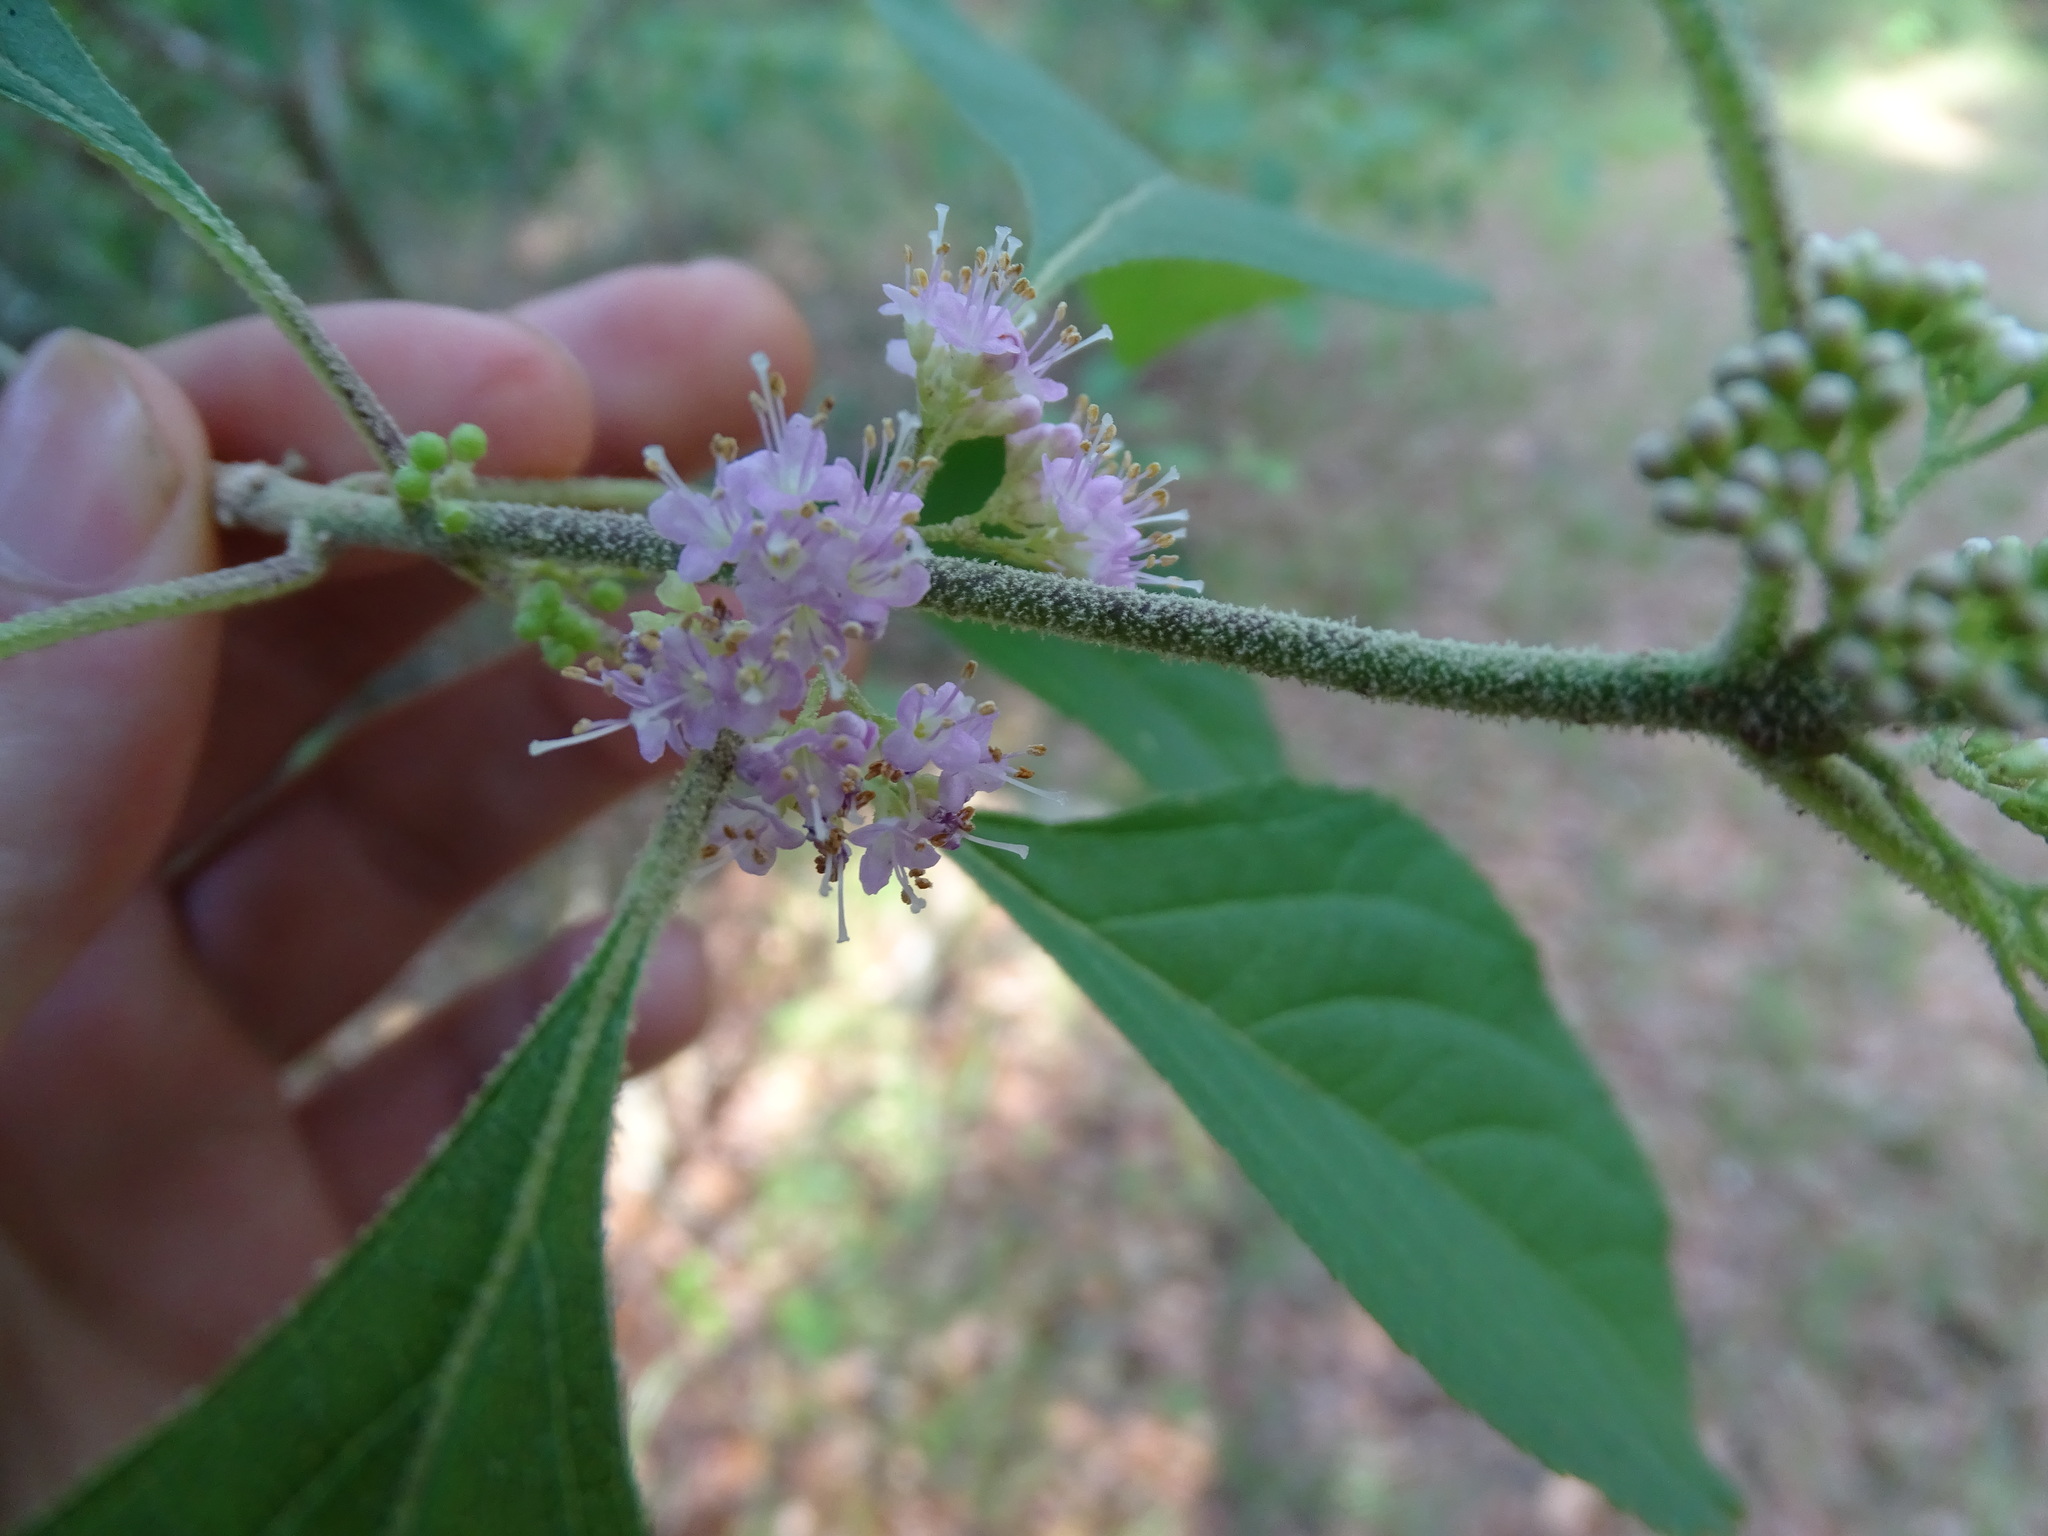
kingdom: Plantae
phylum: Tracheophyta
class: Magnoliopsida
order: Lamiales
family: Lamiaceae
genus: Callicarpa
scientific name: Callicarpa americana
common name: American beautyberry
